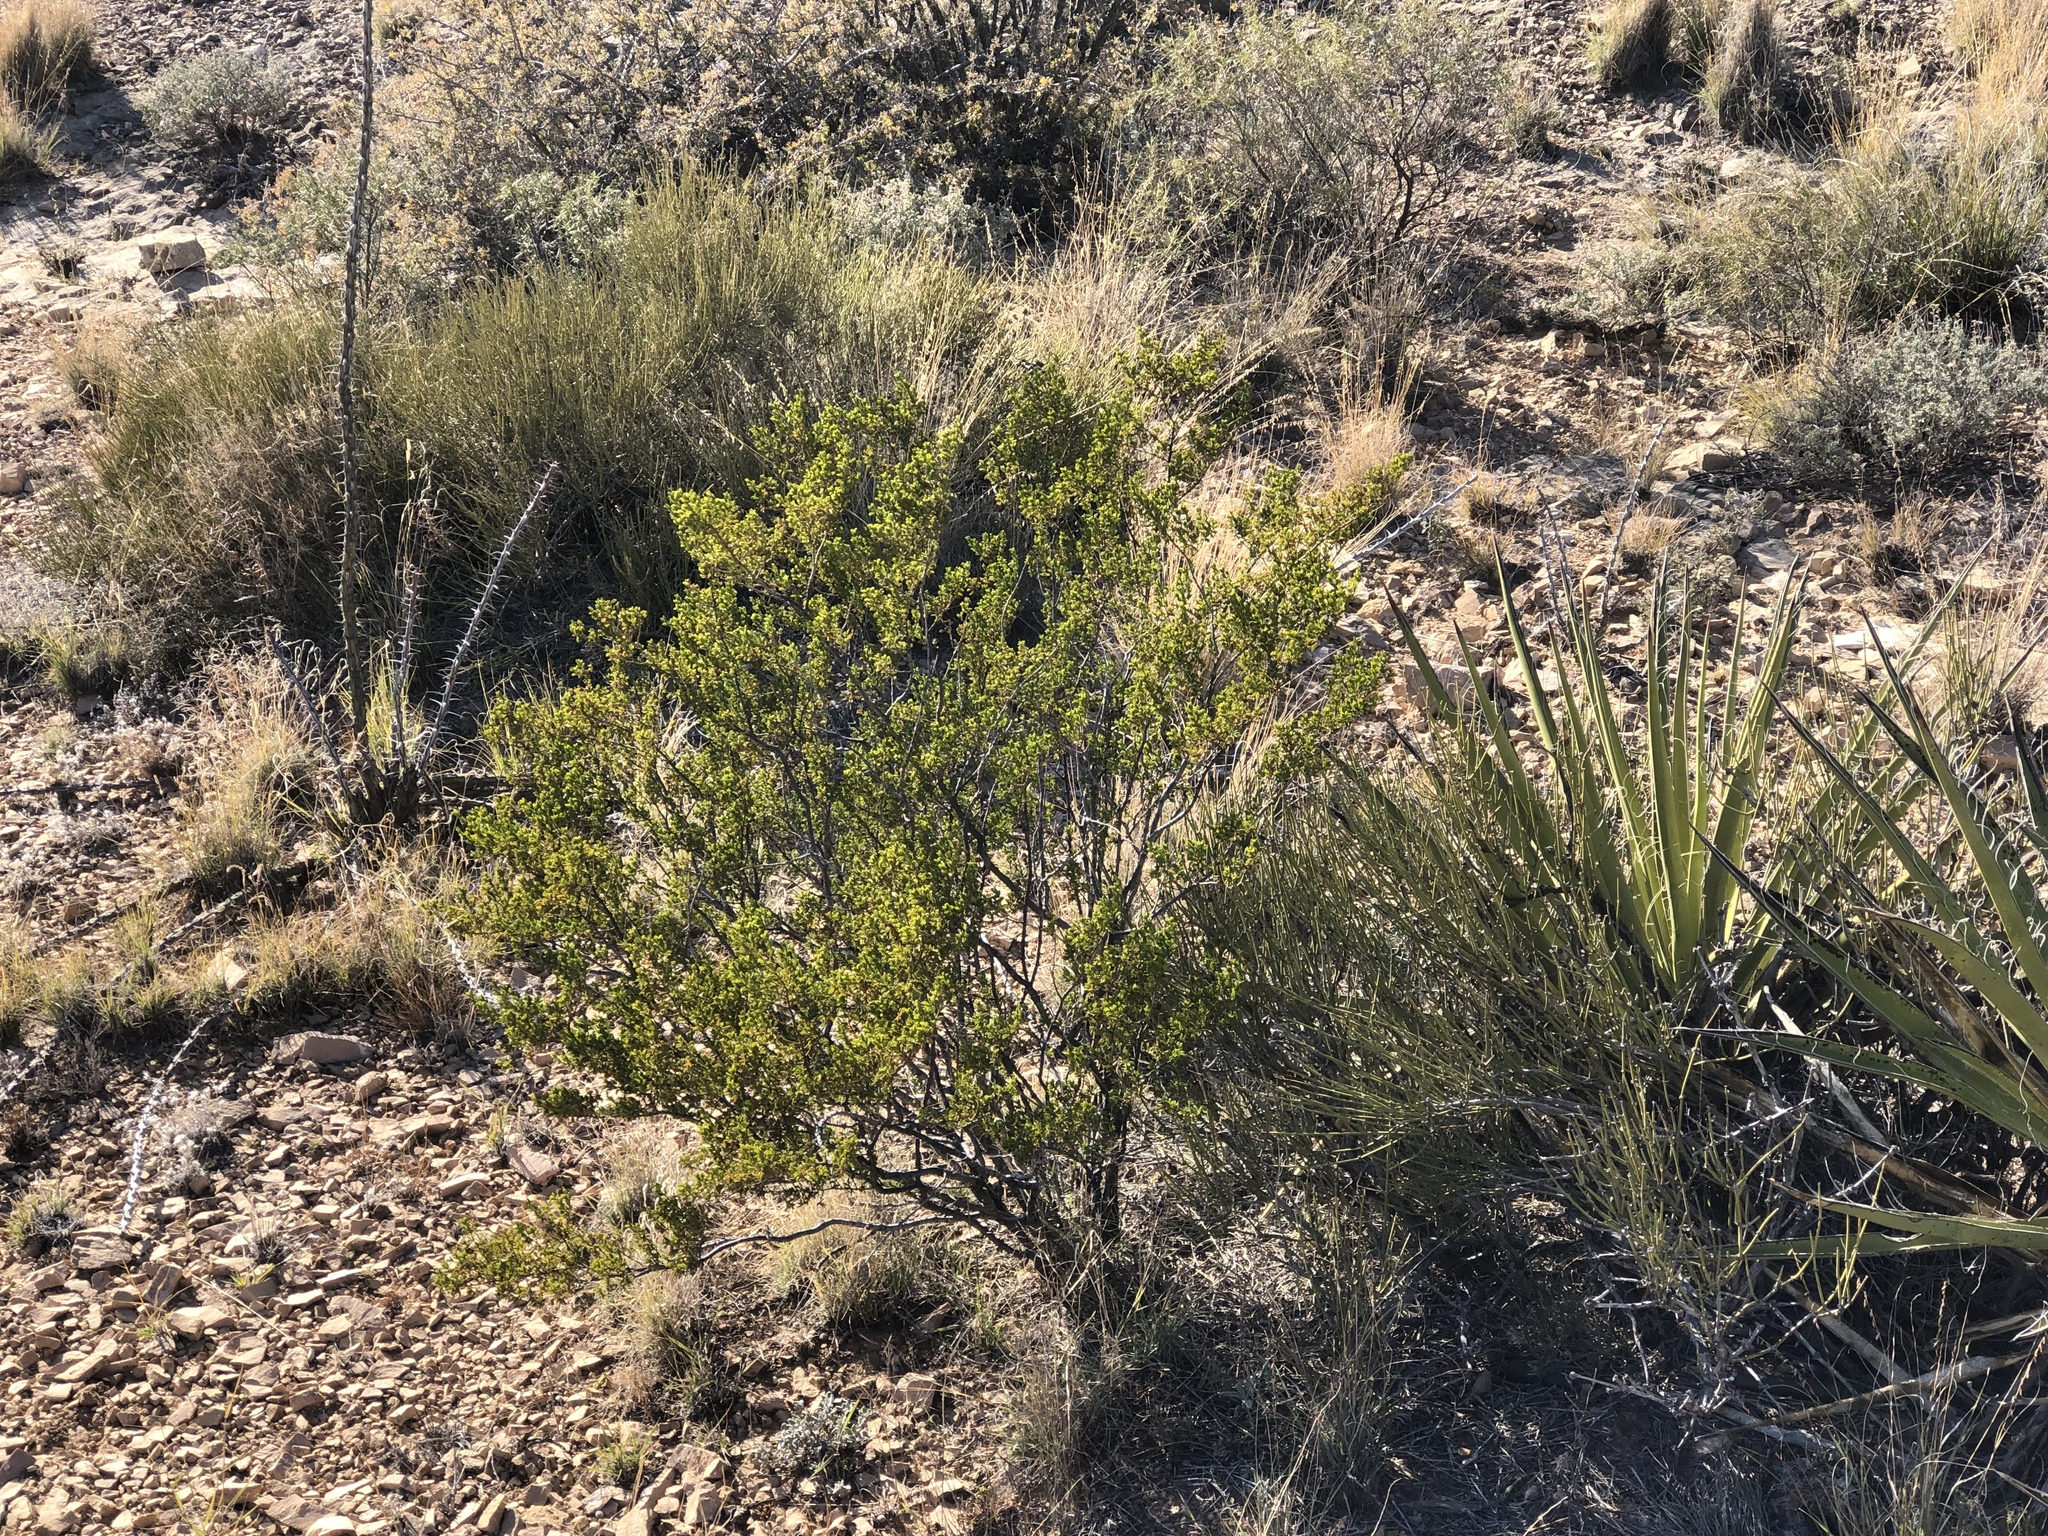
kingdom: Plantae
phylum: Tracheophyta
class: Magnoliopsida
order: Zygophyllales
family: Zygophyllaceae
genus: Larrea
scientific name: Larrea tridentata
